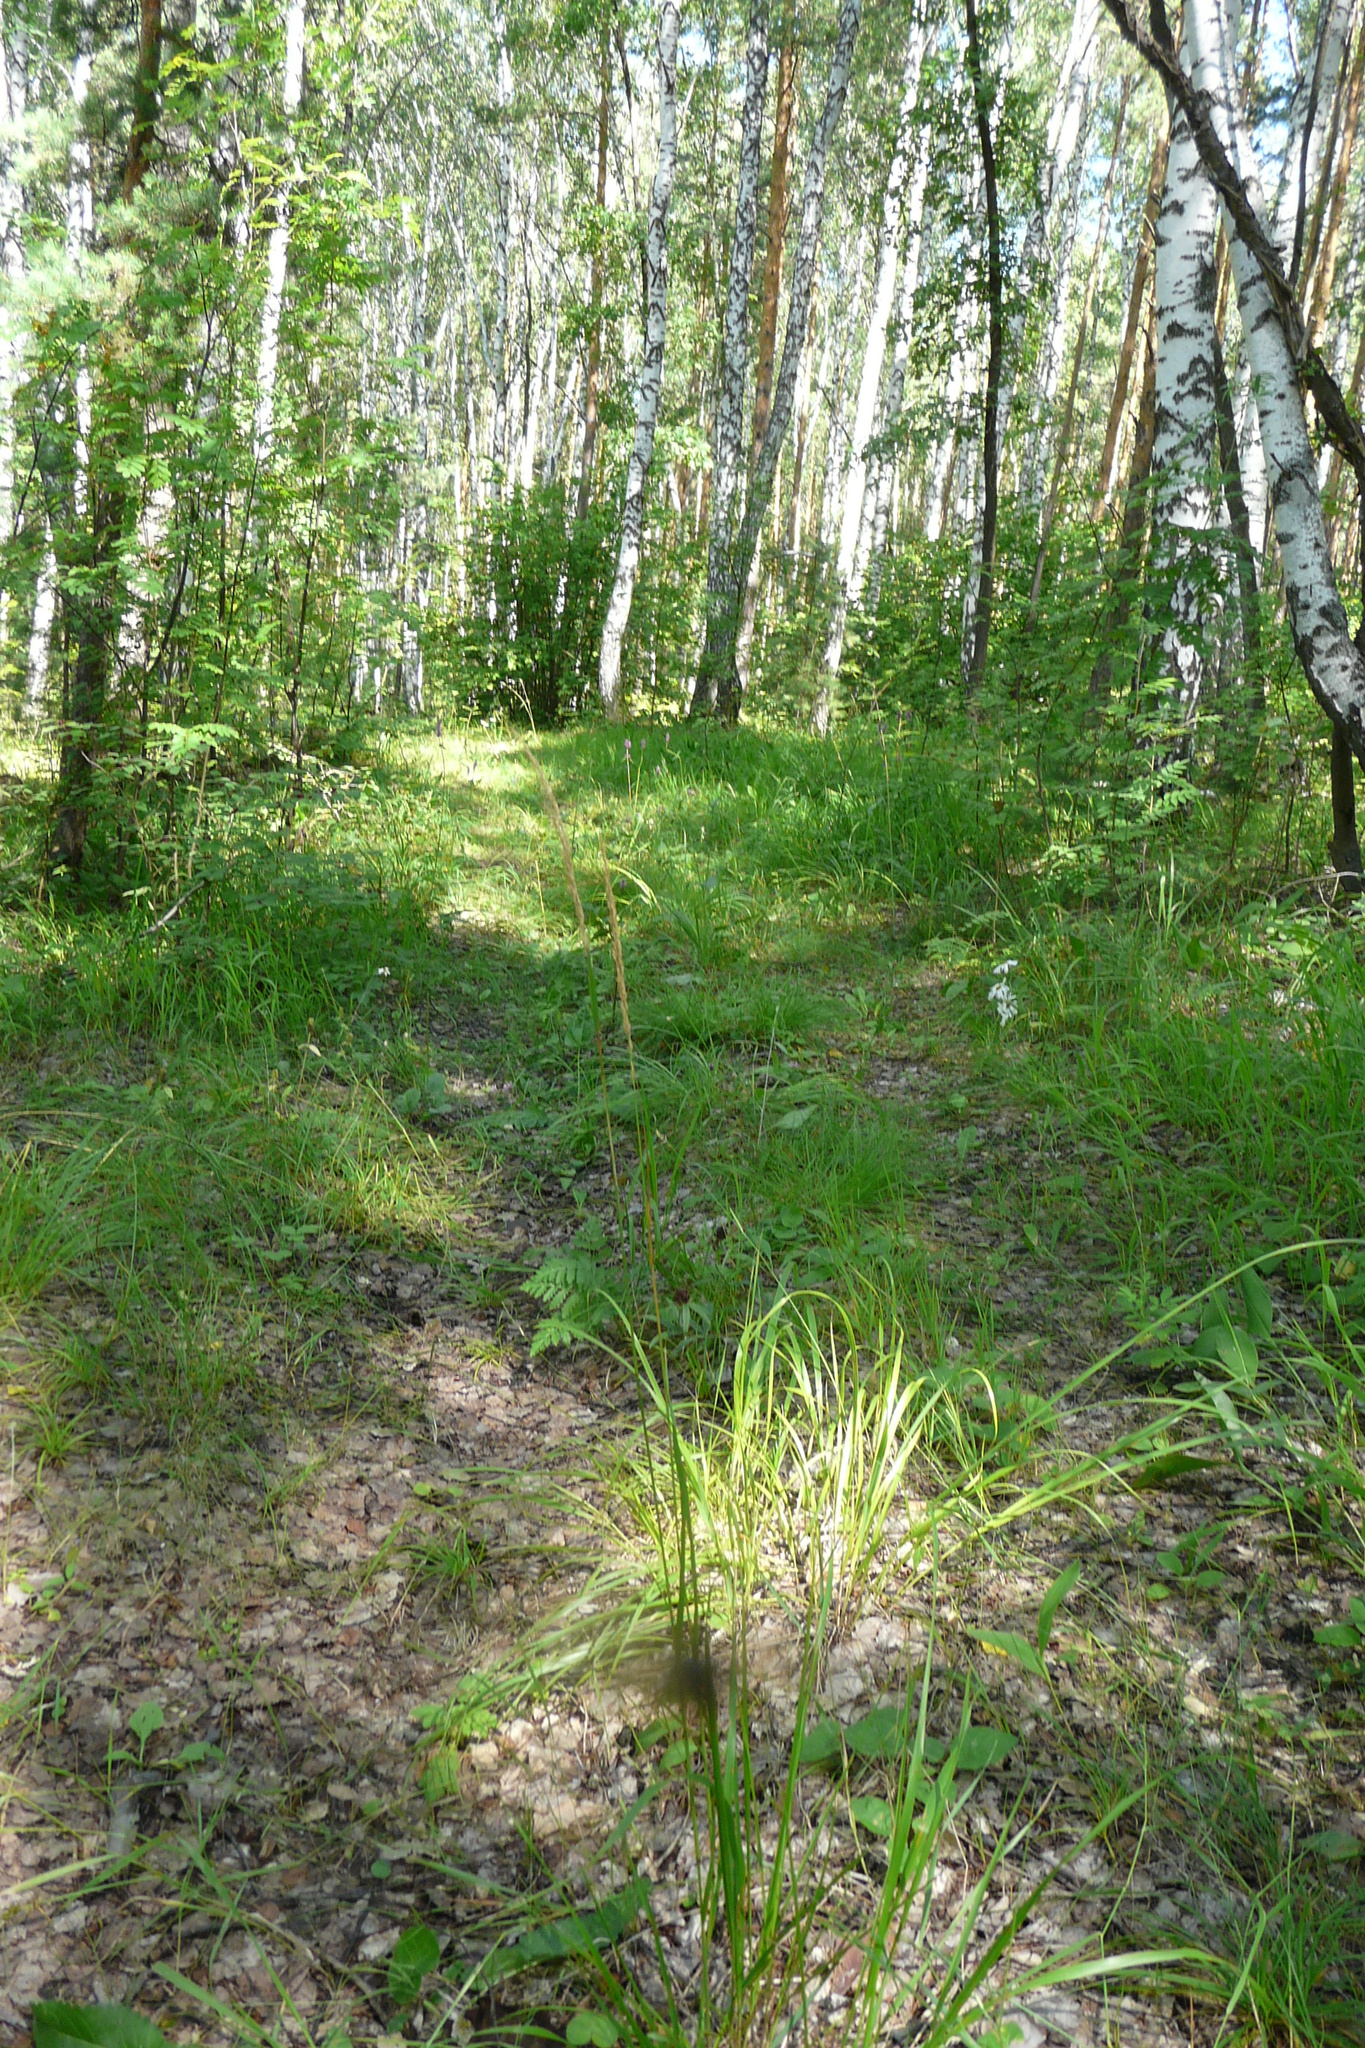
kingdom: Plantae
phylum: Tracheophyta
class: Liliopsida
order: Poales
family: Poaceae
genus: Calamagrostis
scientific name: Calamagrostis arundinacea
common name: Metskastik
